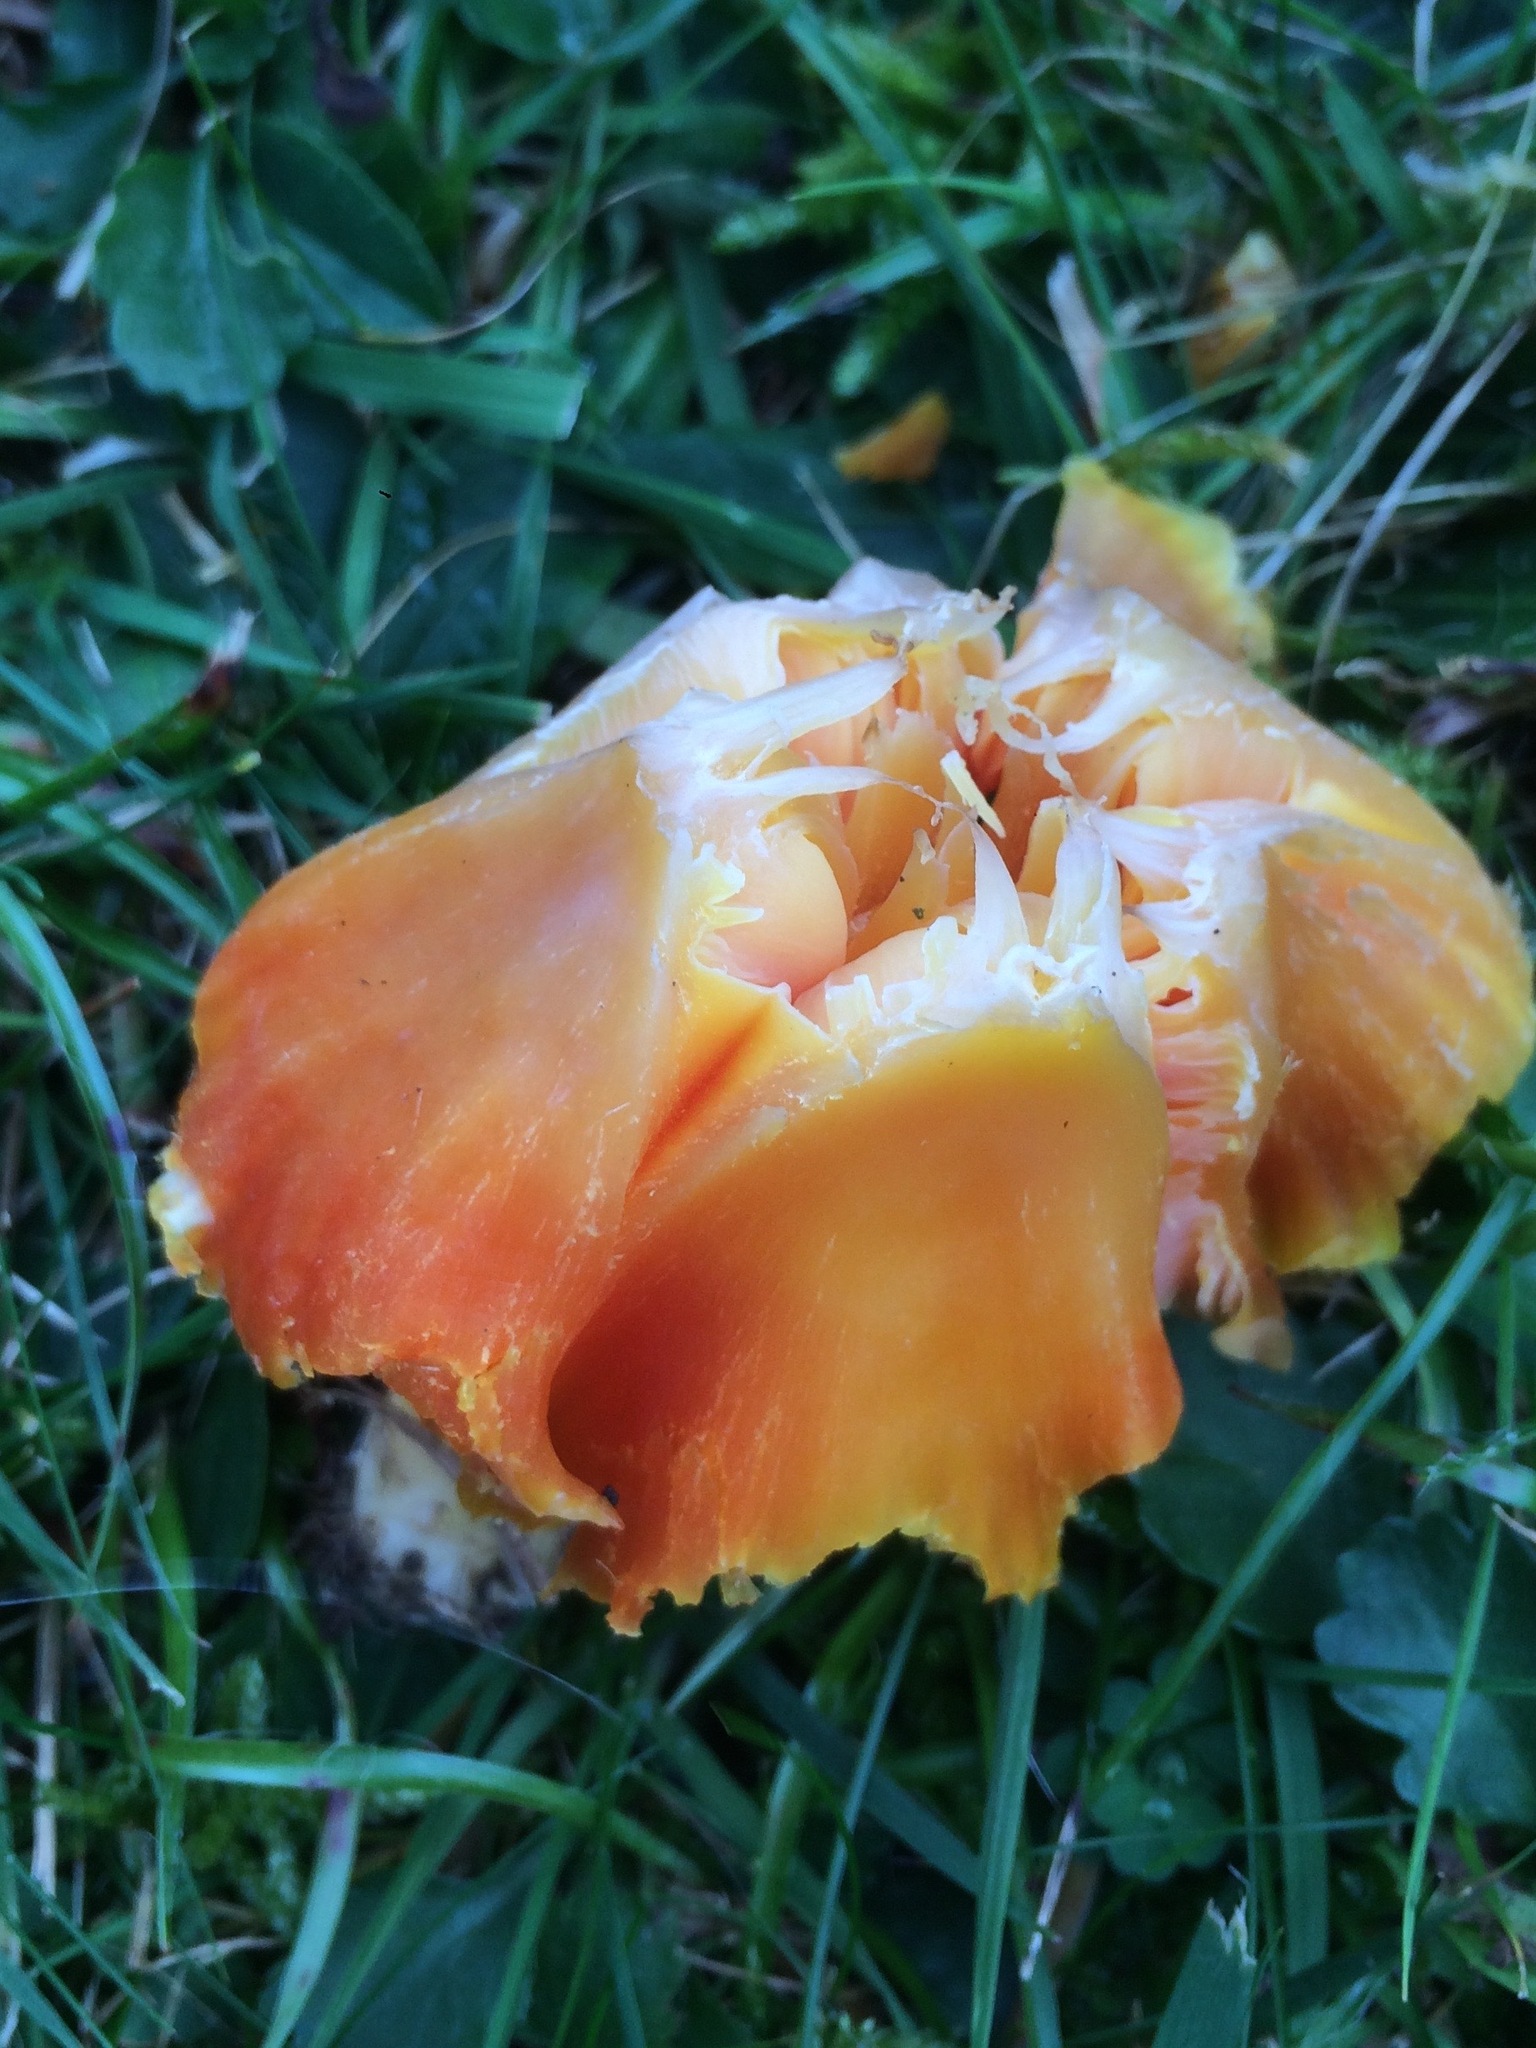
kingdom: Fungi
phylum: Basidiomycota
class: Agaricomycetes
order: Agaricales
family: Hygrophoraceae
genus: Hygrocybe
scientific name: Hygrocybe quieta
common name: Oily waxcap
